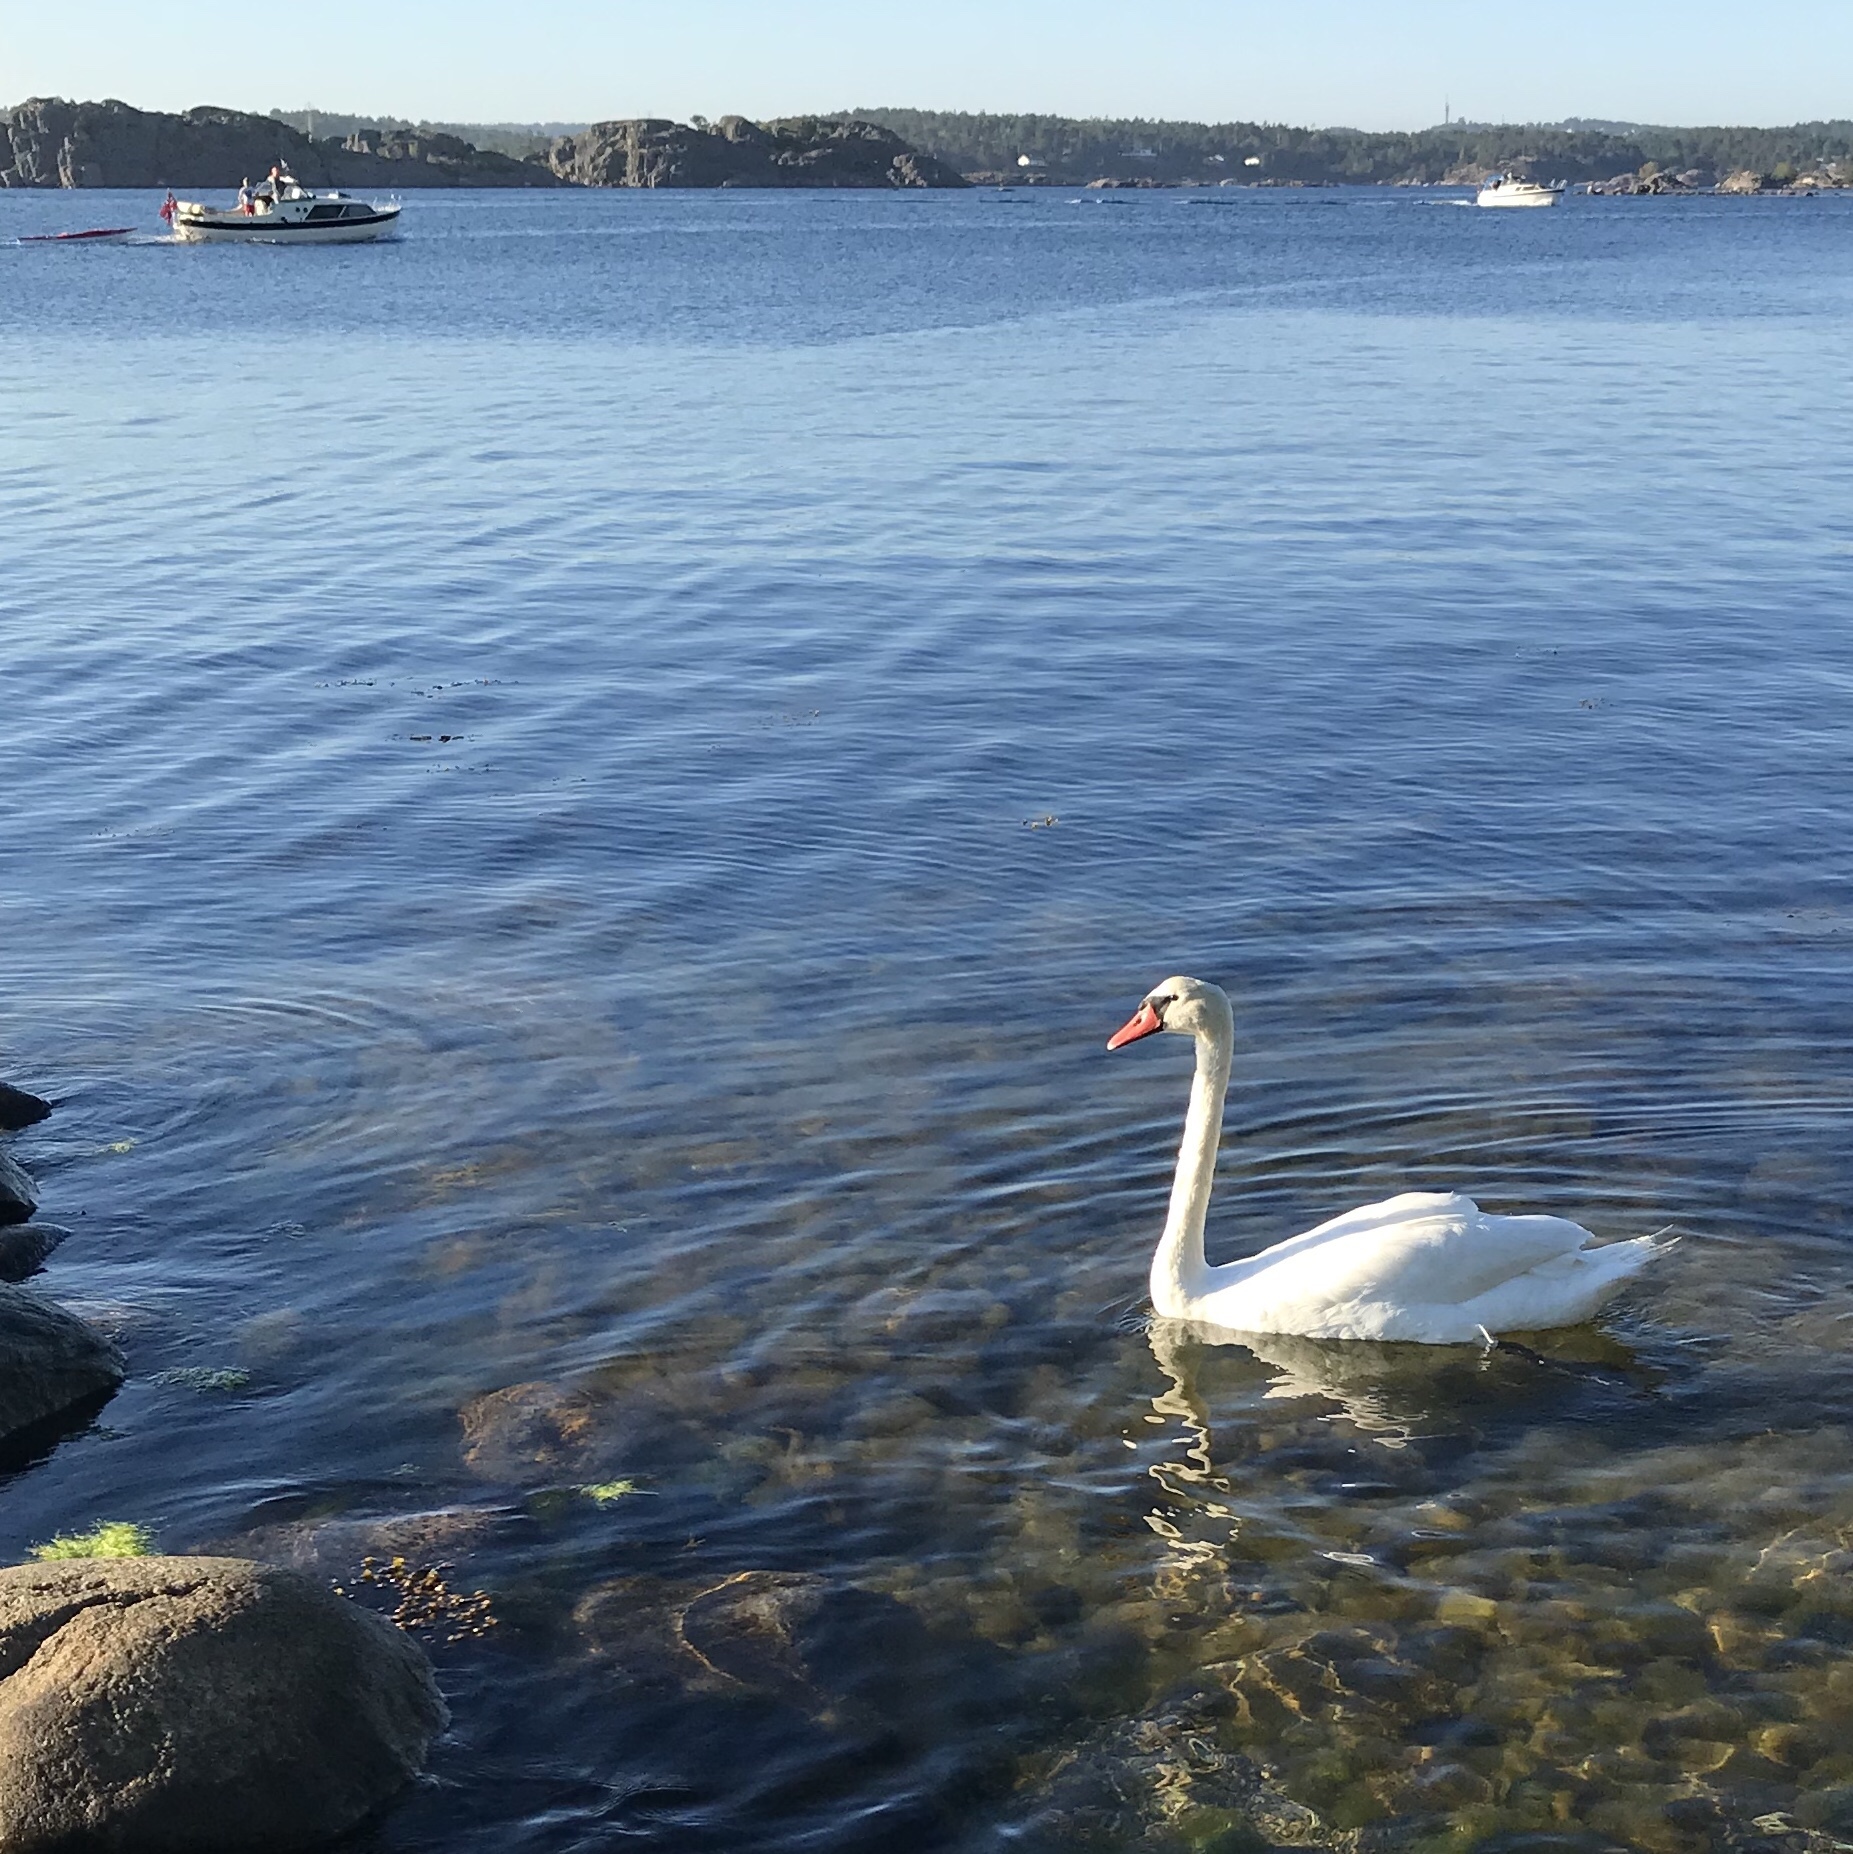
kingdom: Animalia
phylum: Chordata
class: Aves
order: Anseriformes
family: Anatidae
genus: Cygnus
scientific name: Cygnus olor
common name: Mute swan
